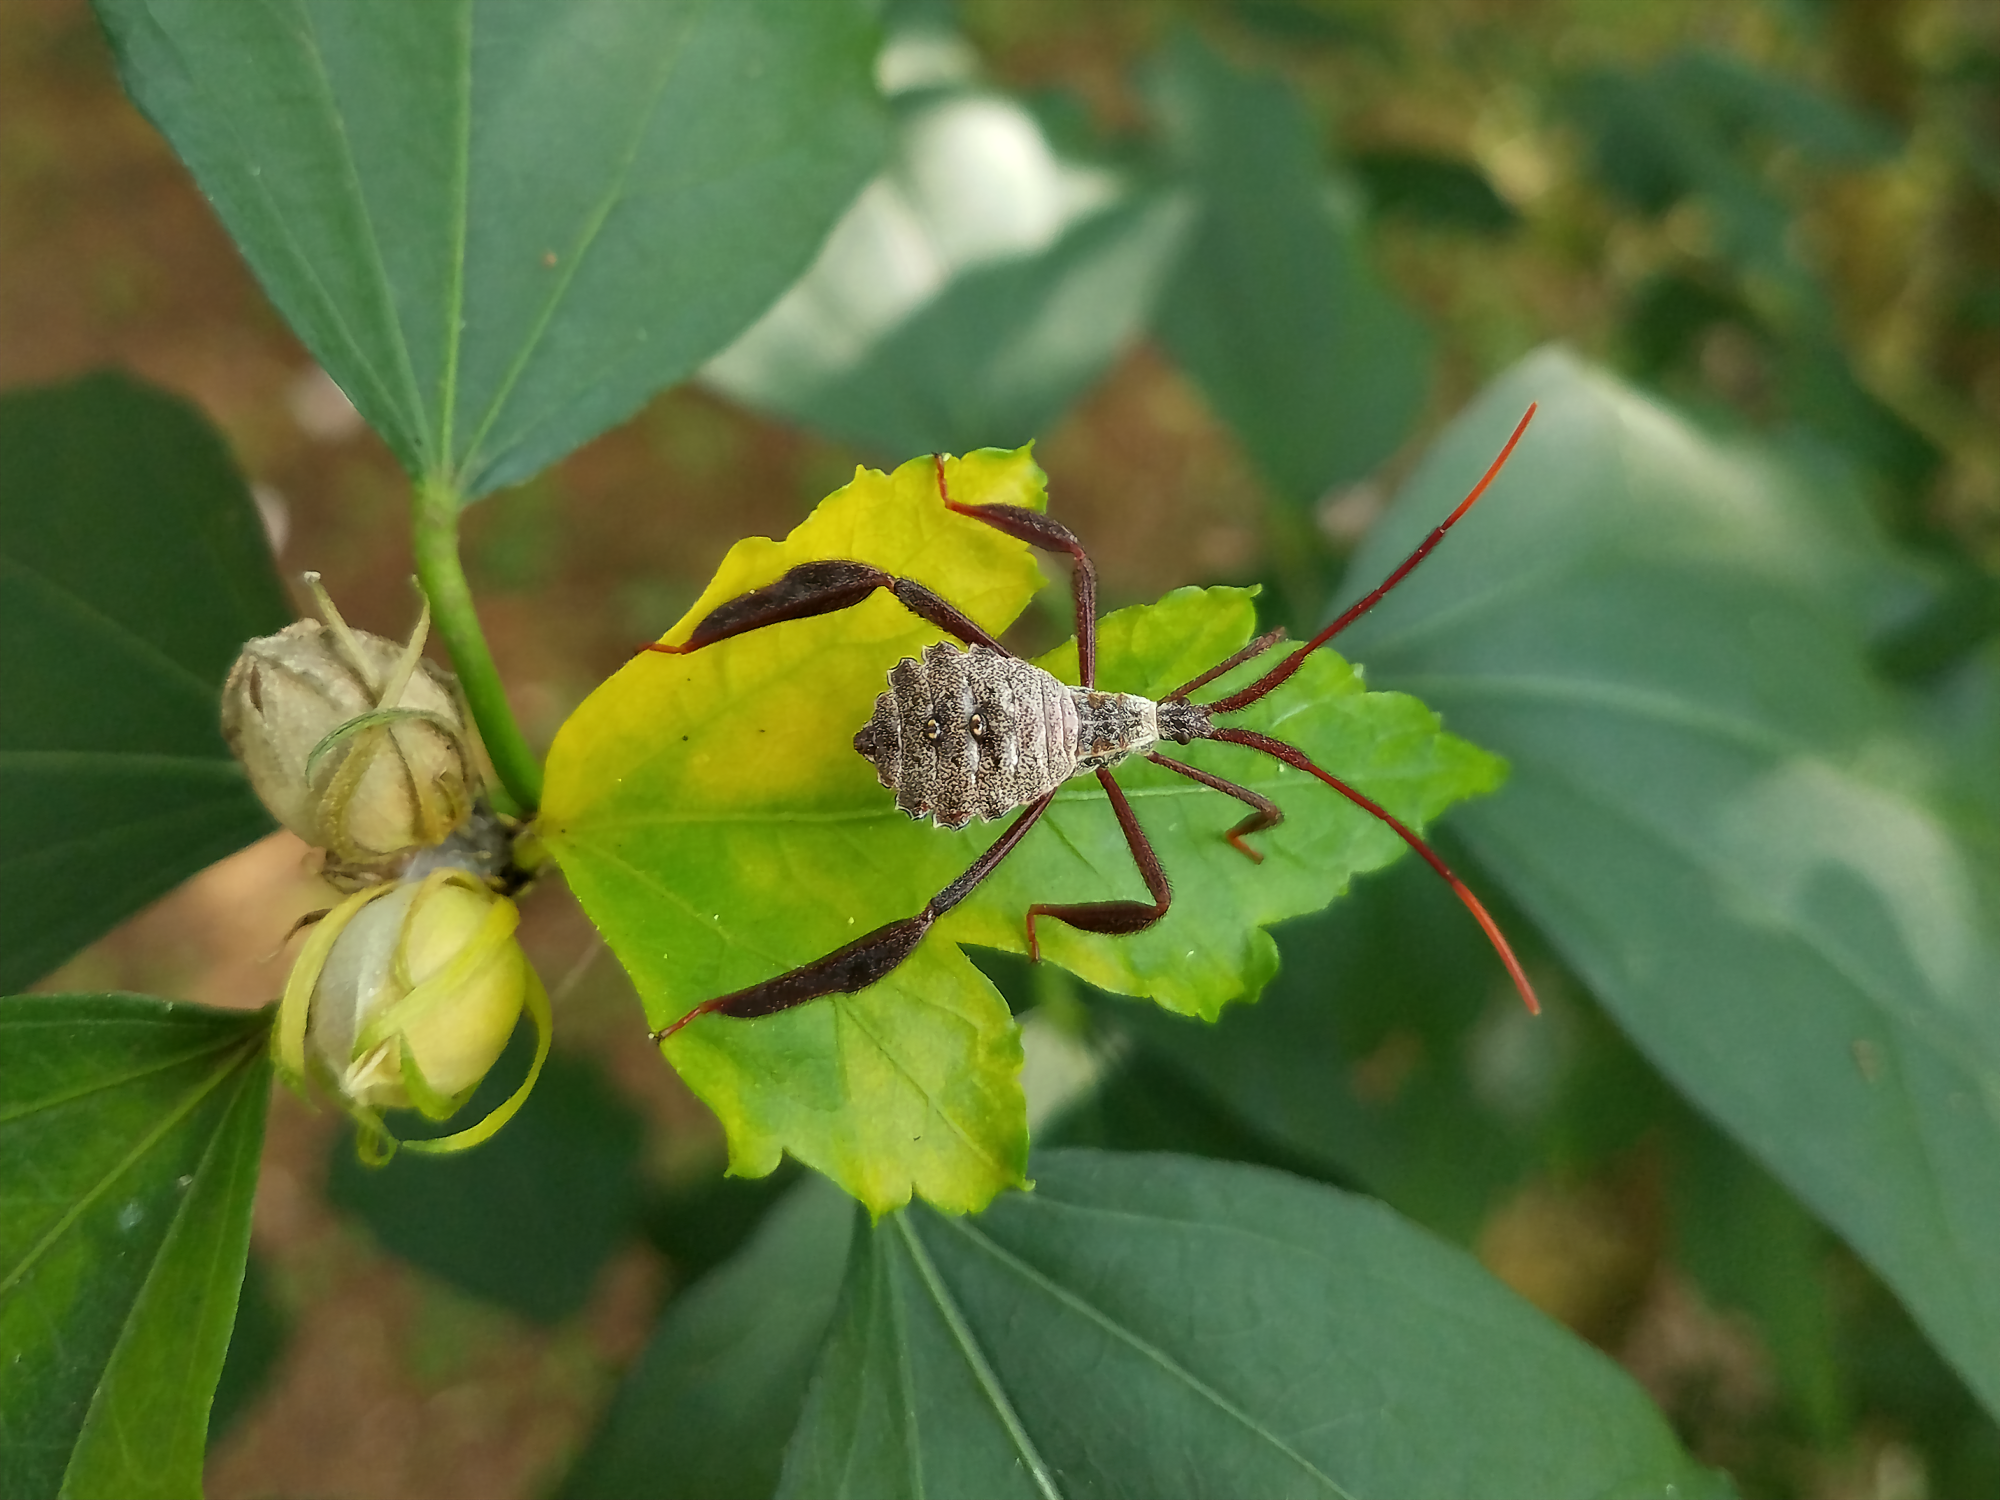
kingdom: Animalia
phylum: Arthropoda
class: Insecta
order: Hemiptera
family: Coreidae
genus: Acanthocephala
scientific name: Acanthocephala declivis
